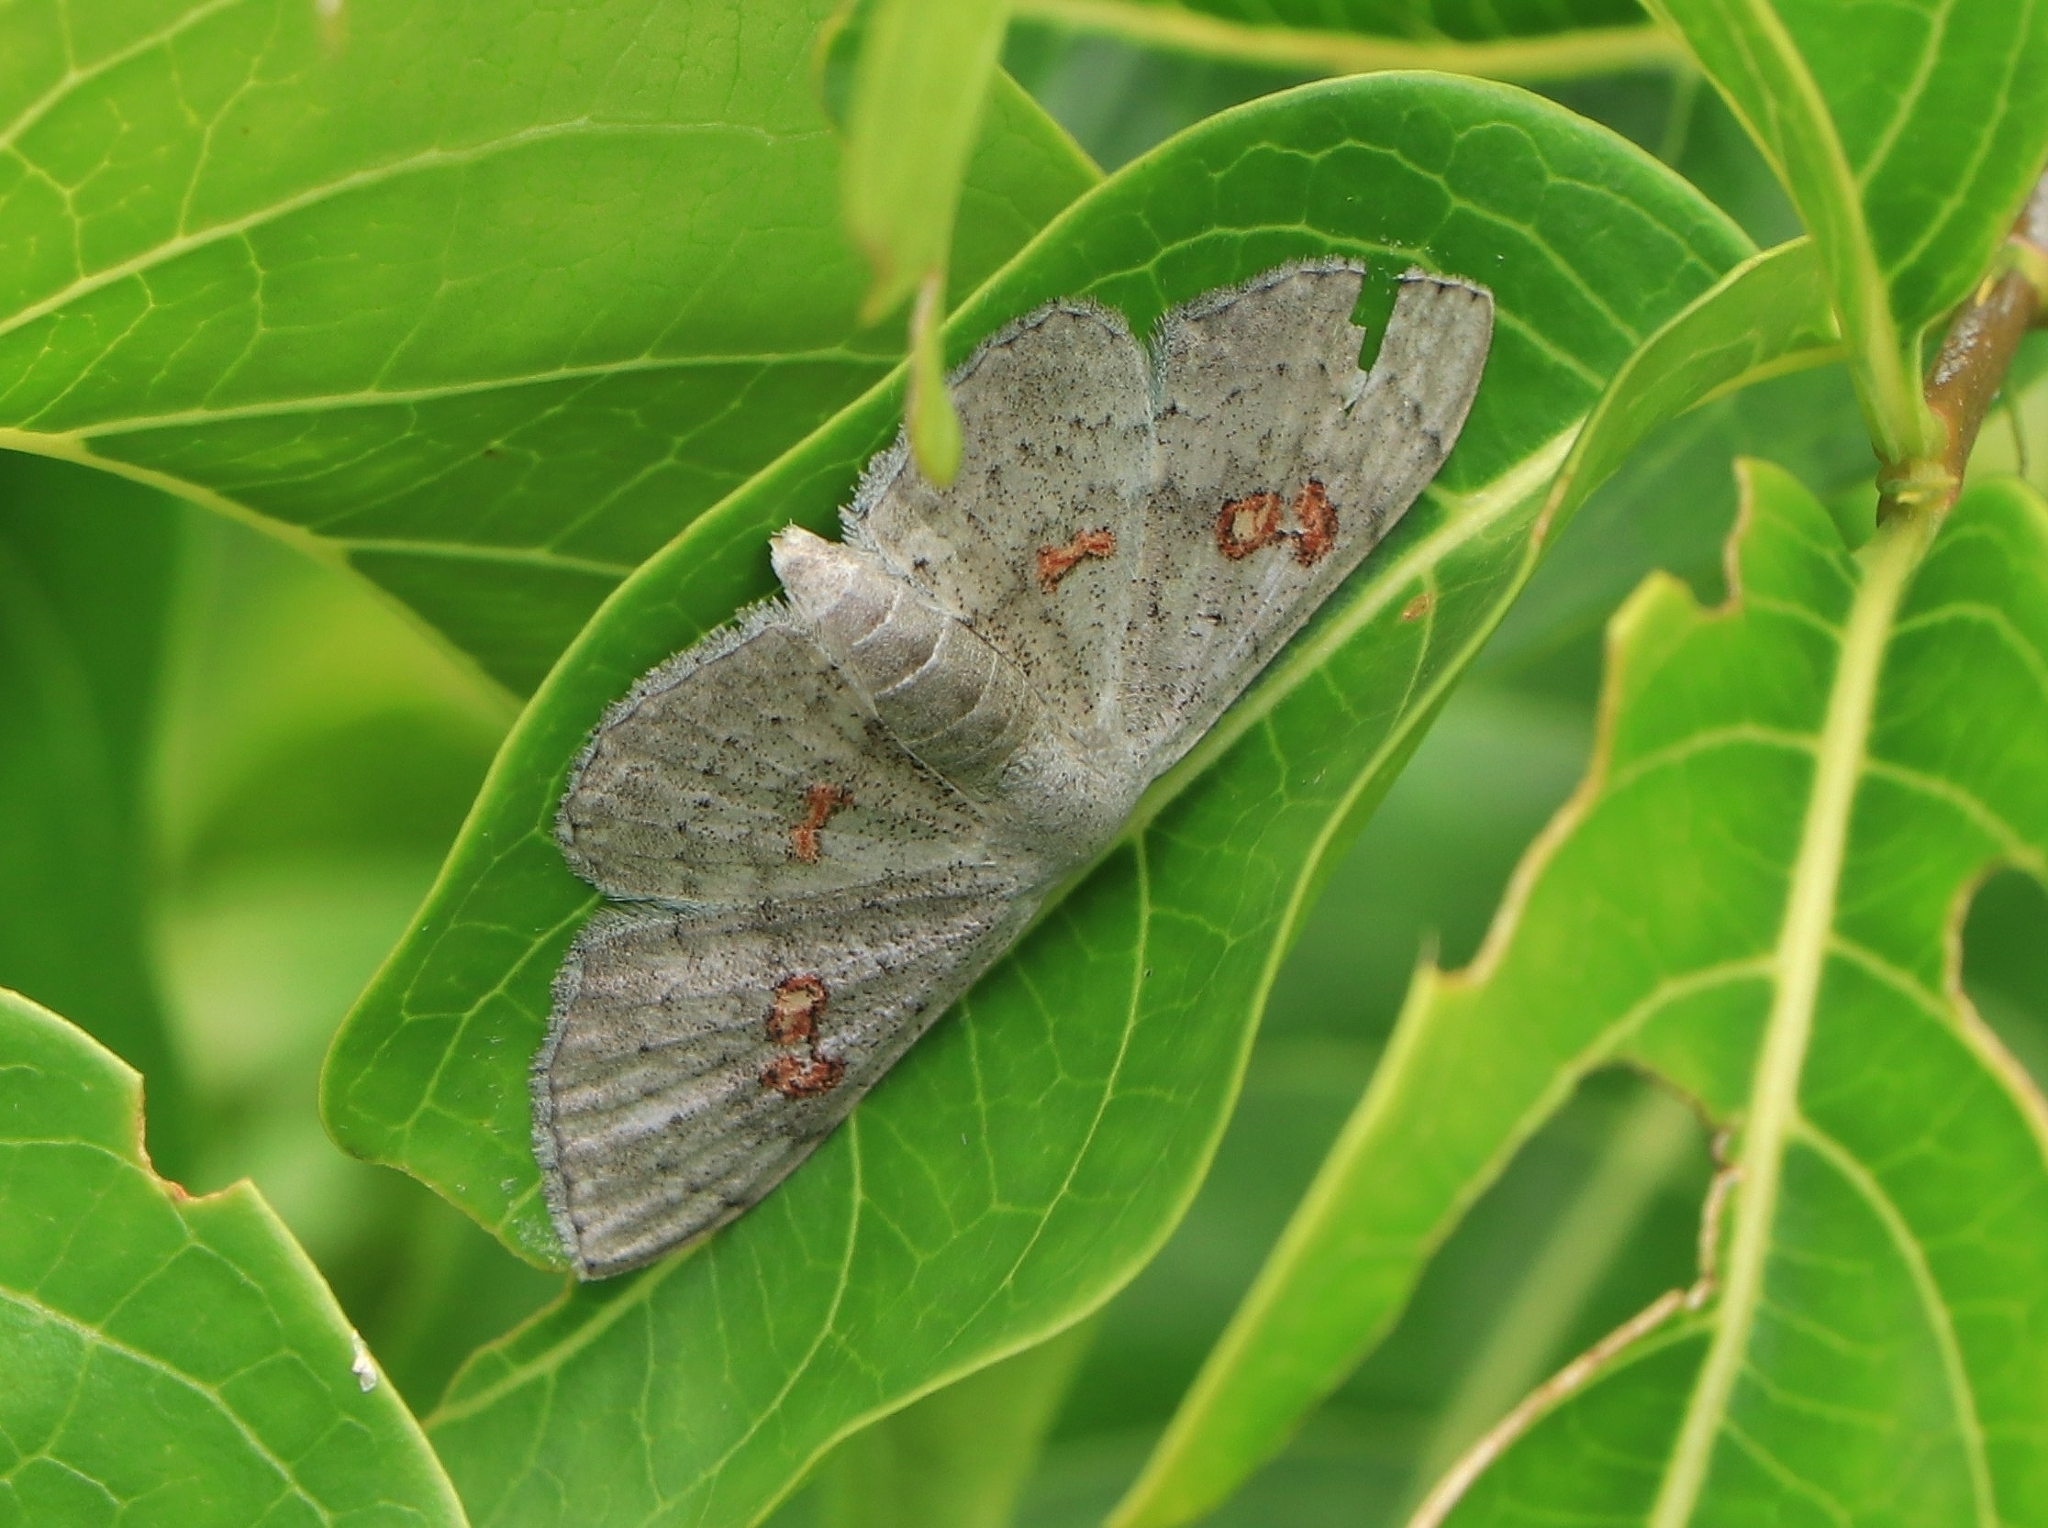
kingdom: Animalia
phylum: Arthropoda
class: Insecta
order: Lepidoptera
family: Geometridae
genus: Somatina
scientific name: Somatina omicraria
